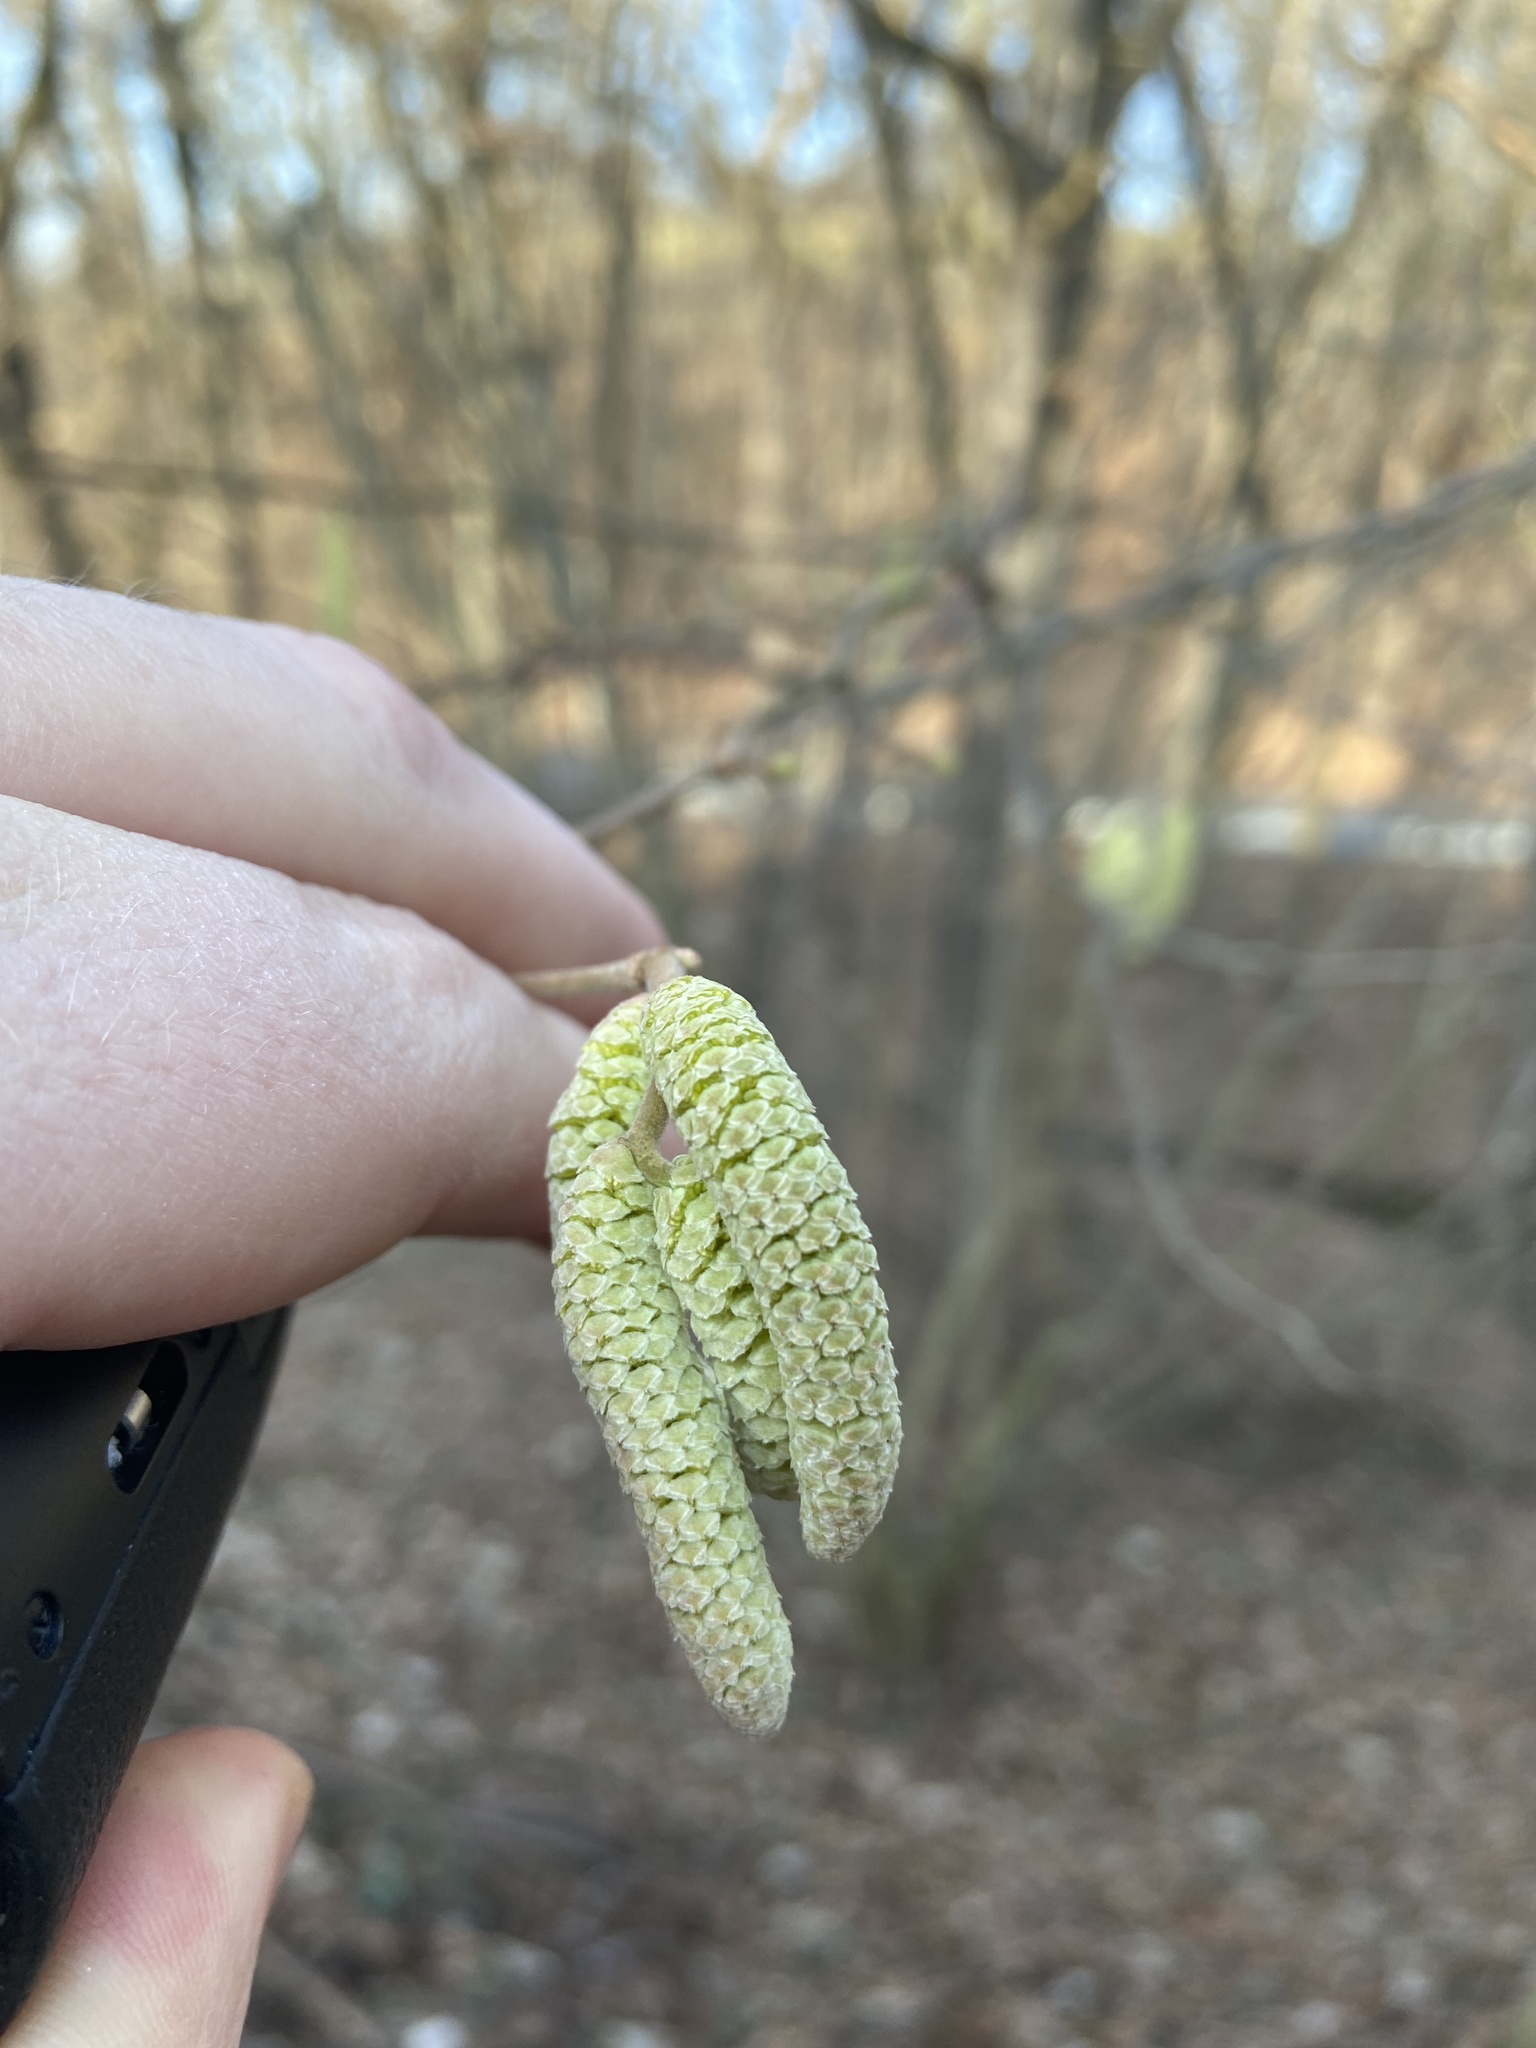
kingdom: Plantae
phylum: Tracheophyta
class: Magnoliopsida
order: Fagales
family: Betulaceae
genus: Corylus
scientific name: Corylus avellana
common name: European hazel
